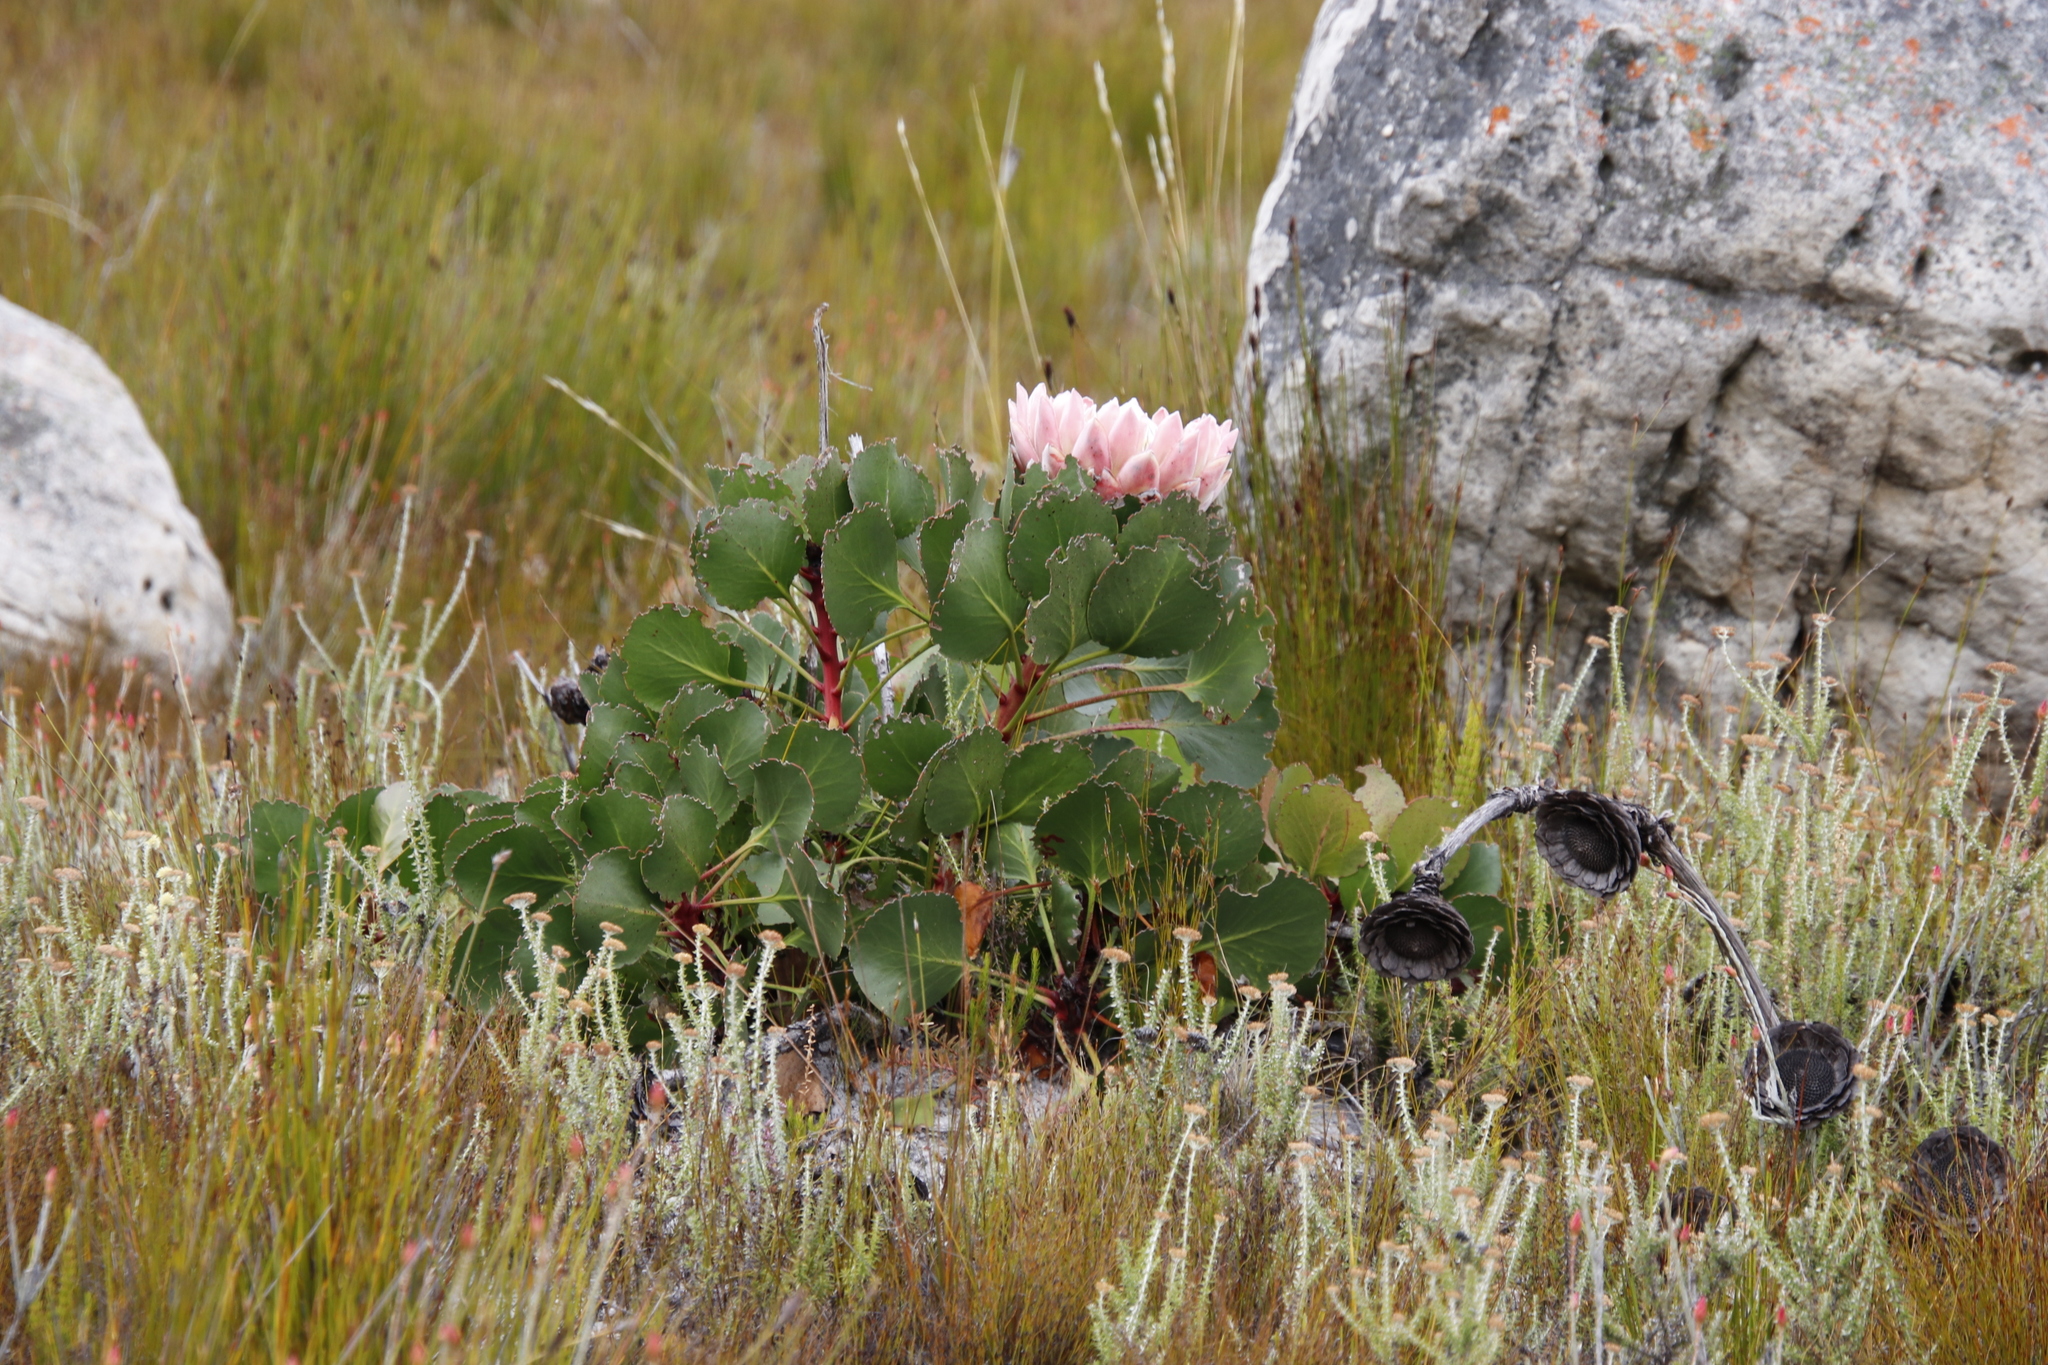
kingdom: Plantae
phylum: Tracheophyta
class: Magnoliopsida
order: Proteales
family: Proteaceae
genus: Protea
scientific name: Protea cynaroides
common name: King protea
